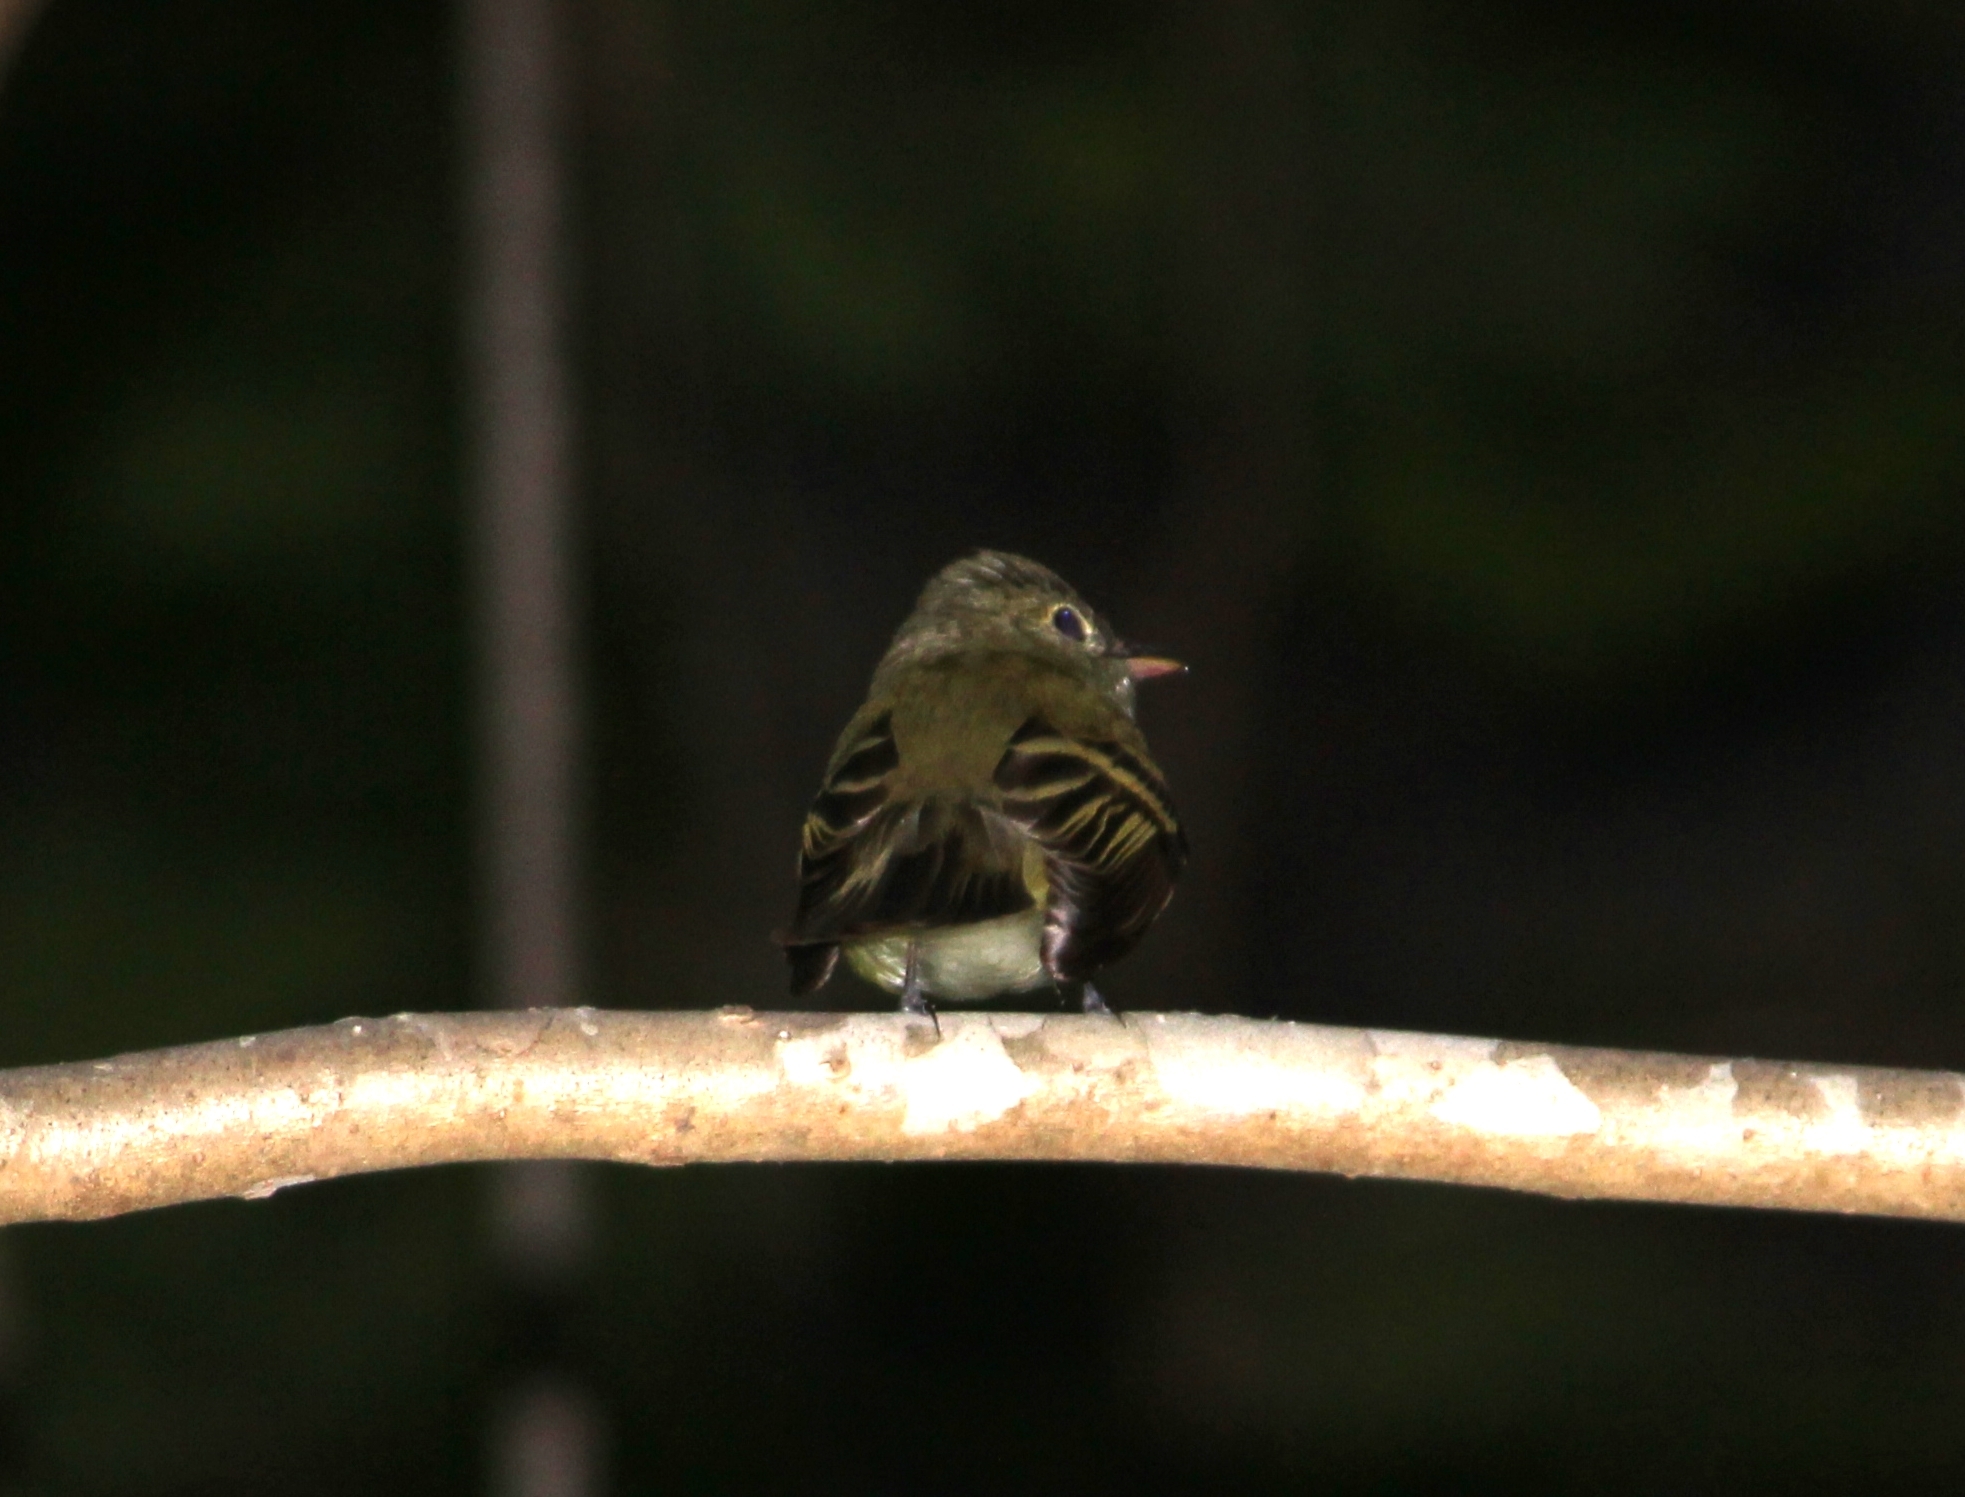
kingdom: Animalia
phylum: Chordata
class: Aves
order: Passeriformes
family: Tyrannidae
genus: Empidonax
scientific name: Empidonax virescens
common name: Acadian flycatcher
